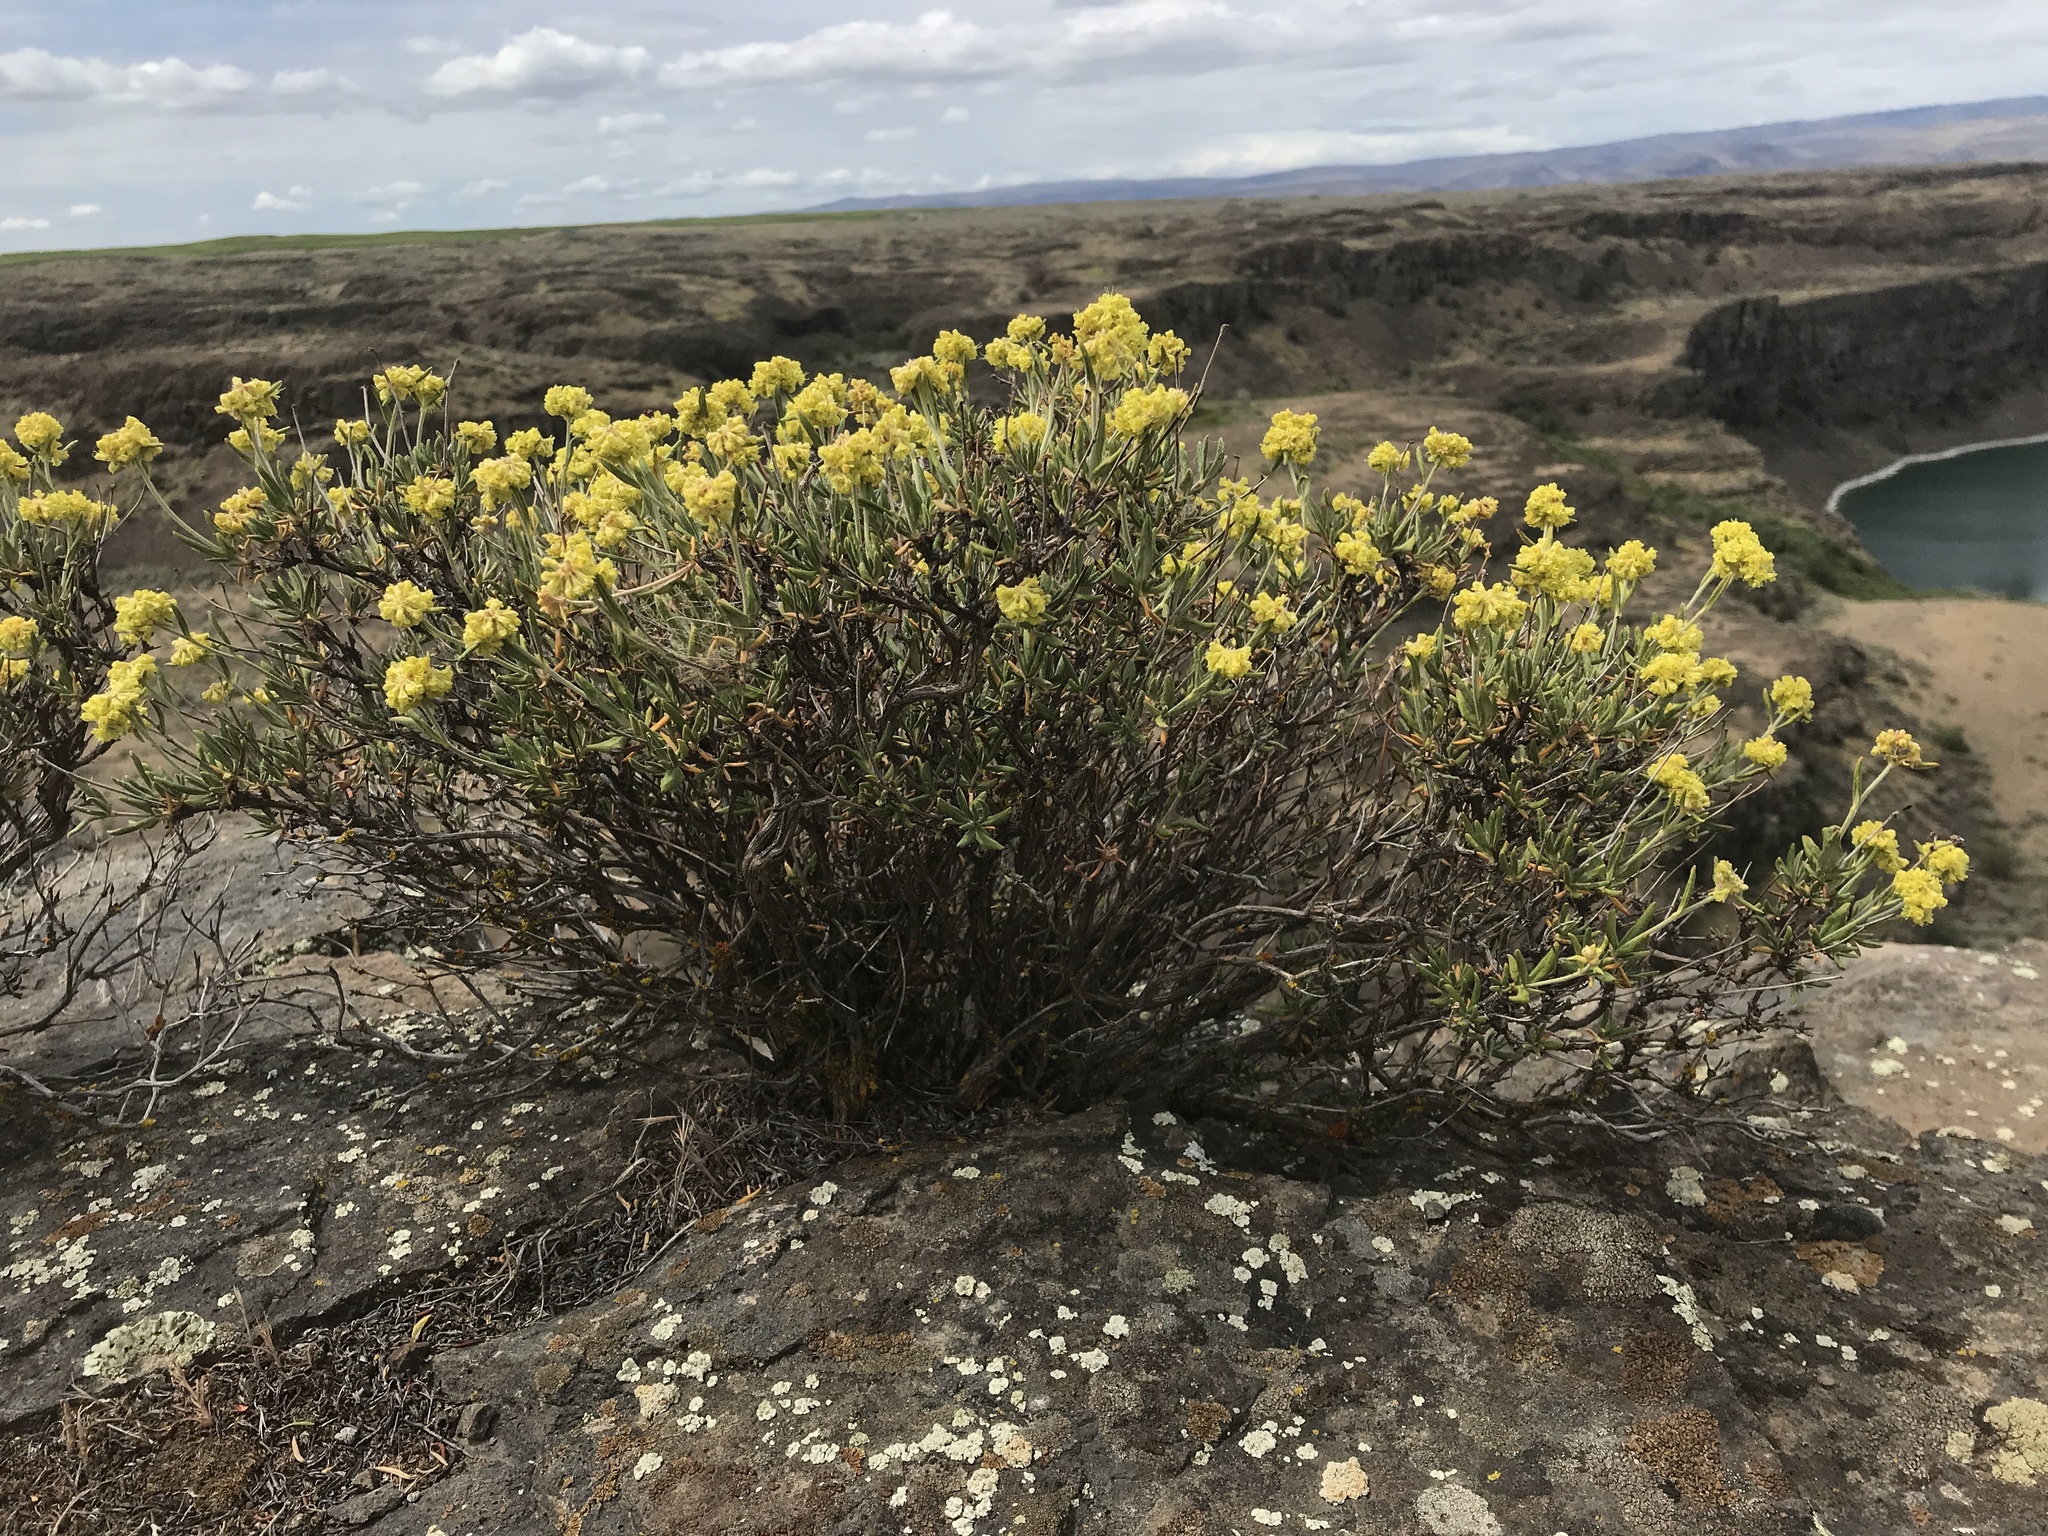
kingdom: Plantae
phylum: Tracheophyta
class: Magnoliopsida
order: Caryophyllales
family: Polygonaceae
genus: Eriogonum
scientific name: Eriogonum sphaerocephalum
